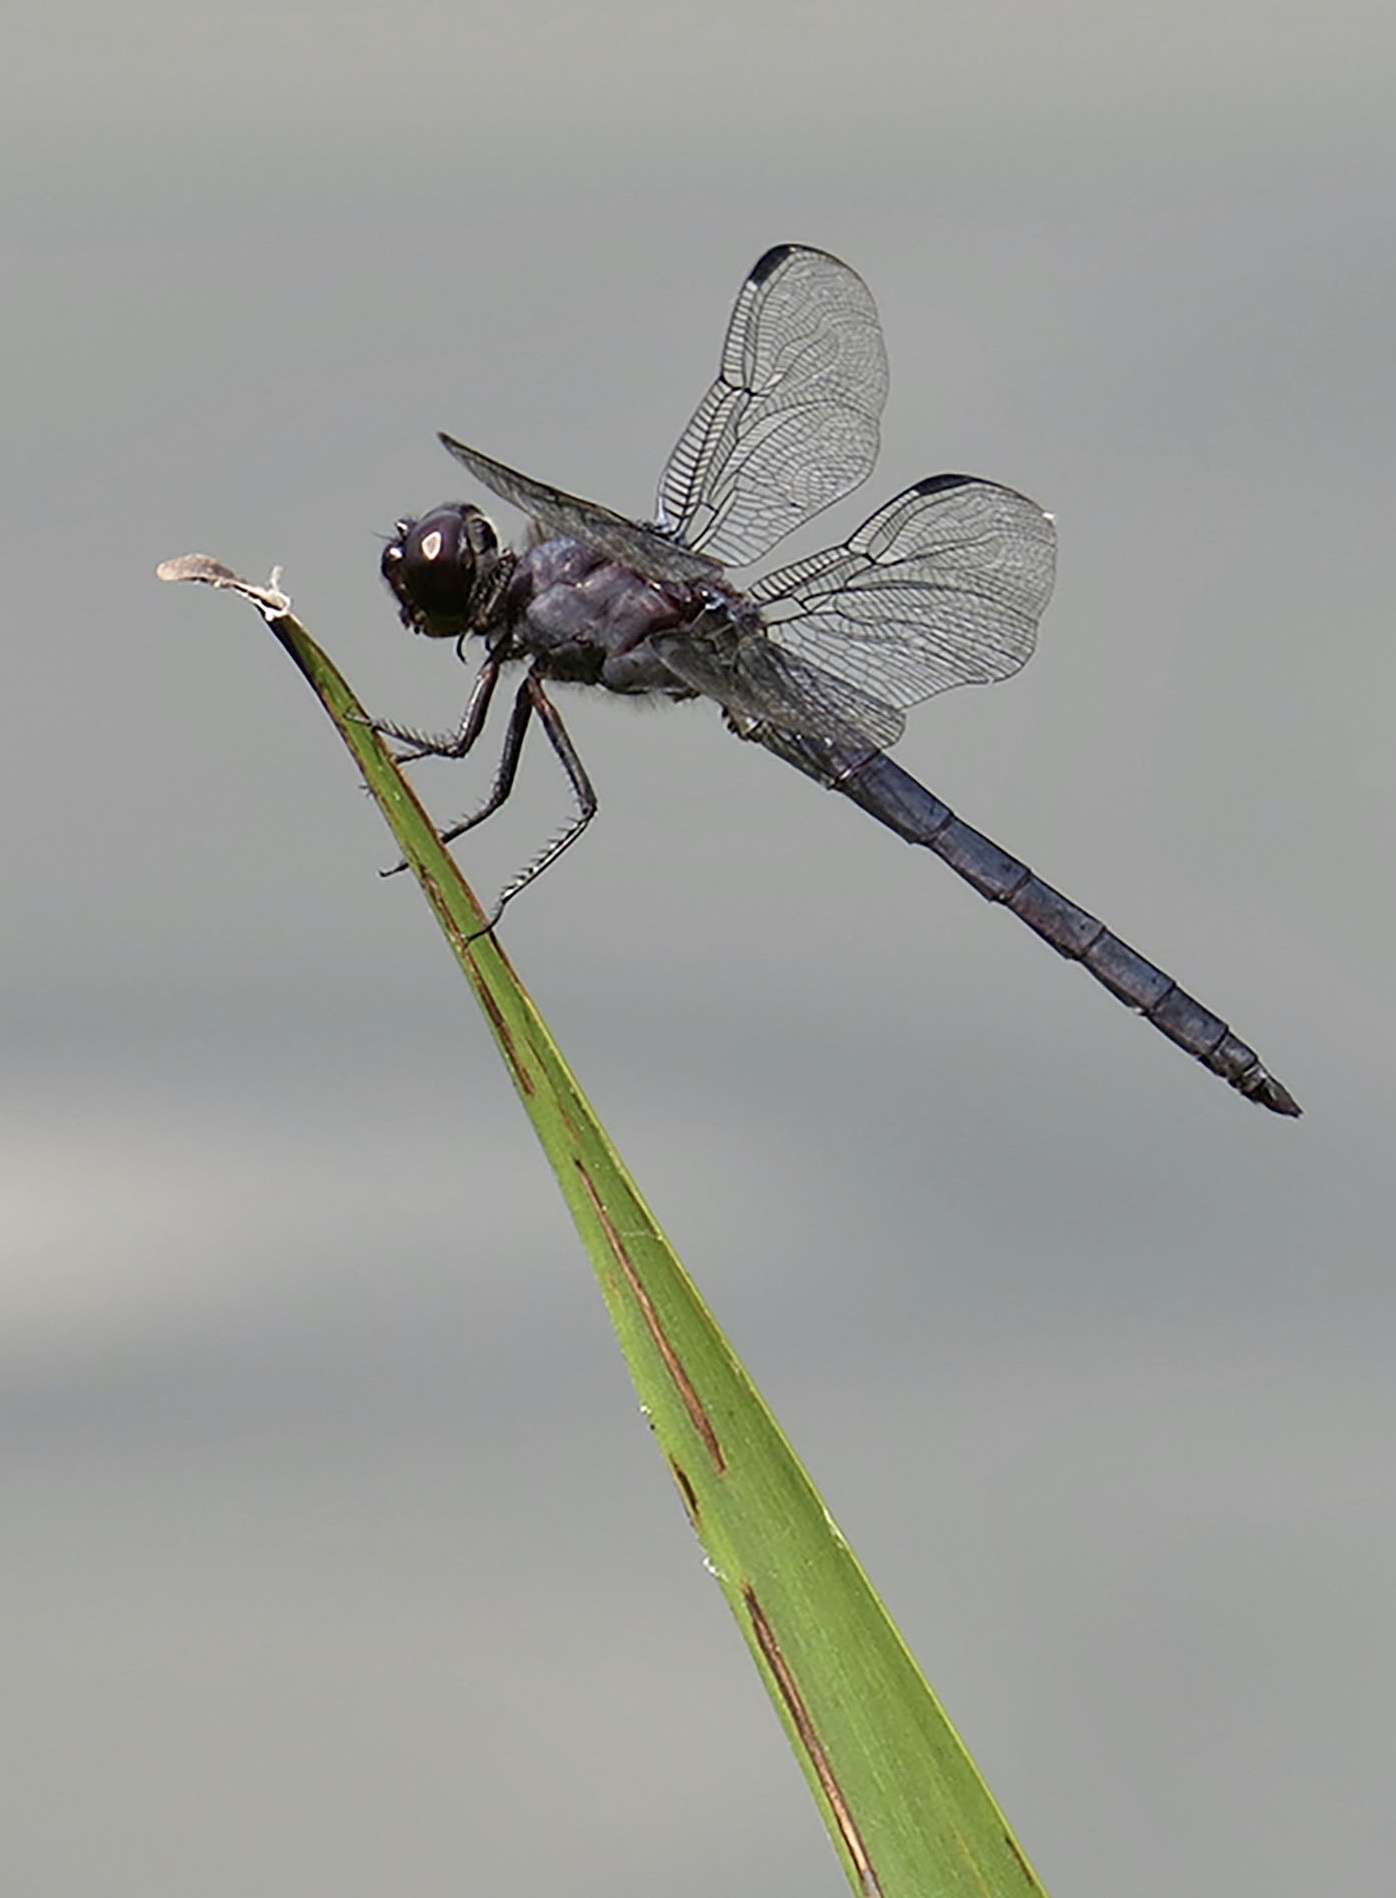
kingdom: Animalia
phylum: Arthropoda
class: Insecta
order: Odonata
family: Libellulidae
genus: Libellula
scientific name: Libellula incesta
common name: Slaty skimmer
